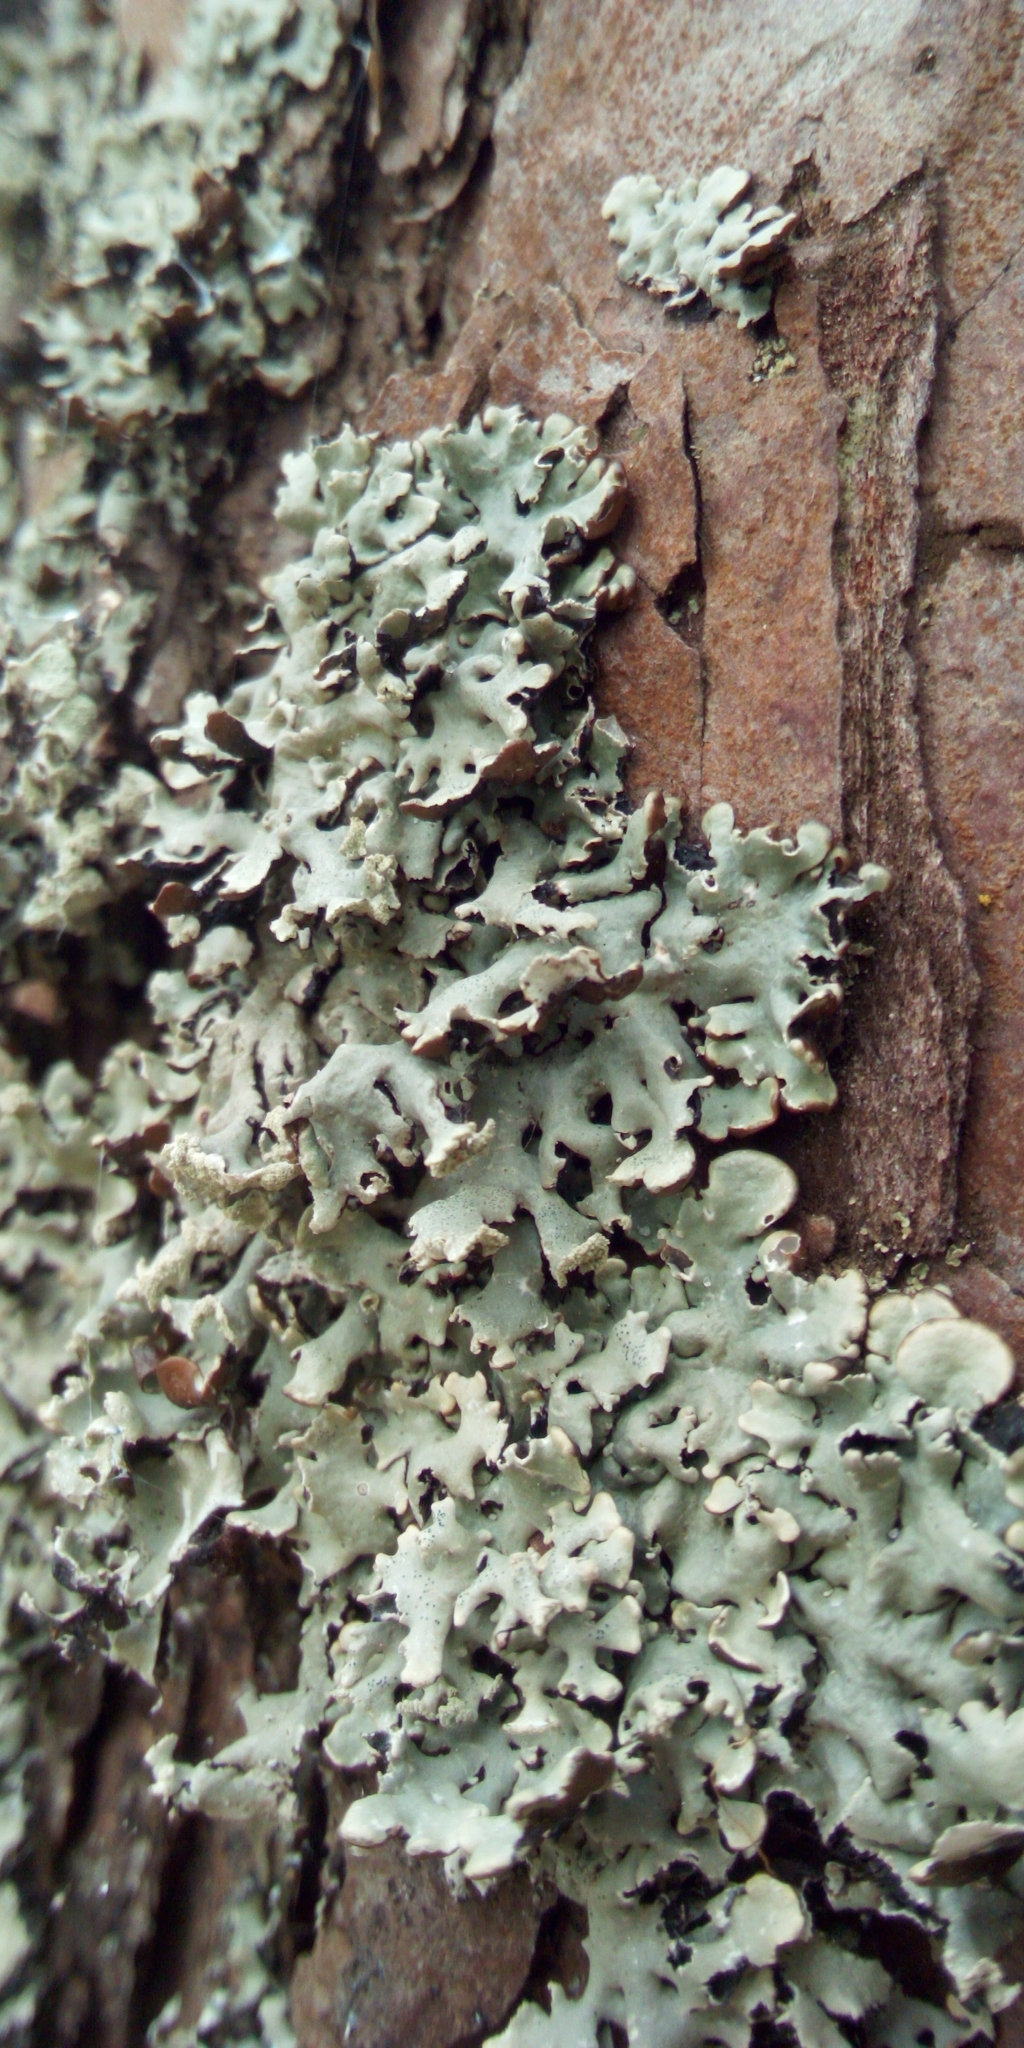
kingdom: Fungi
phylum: Ascomycota
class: Lecanoromycetes
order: Lecanorales
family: Parmeliaceae
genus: Hypogymnia
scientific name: Hypogymnia physodes
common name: Dark crottle
